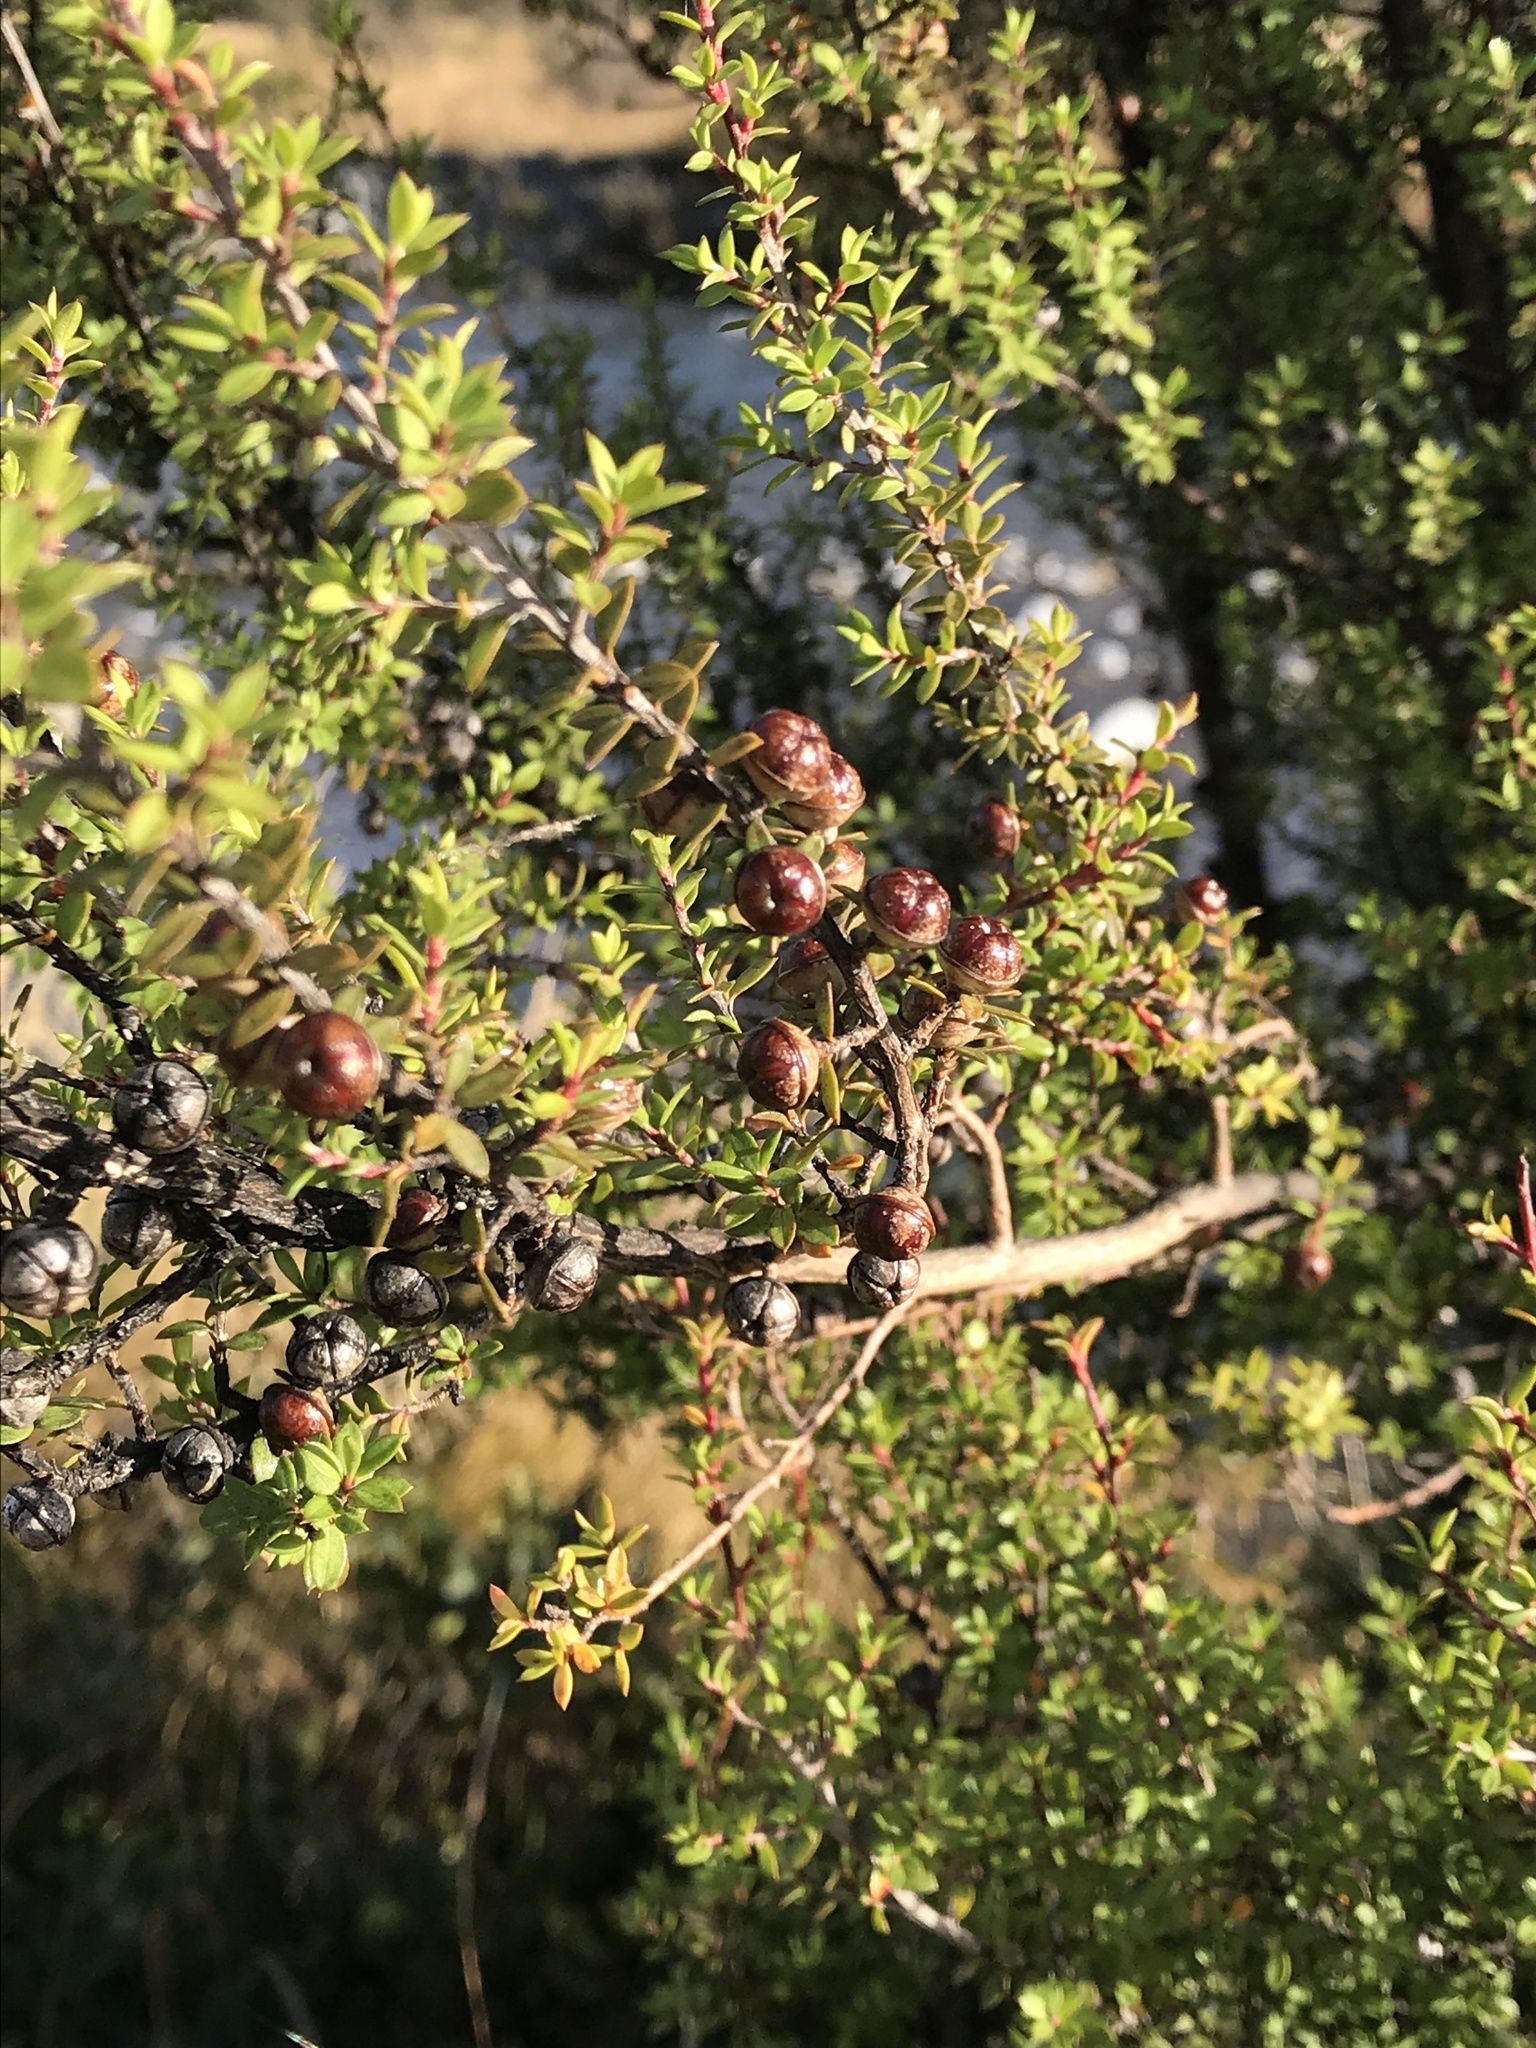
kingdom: Plantae
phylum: Tracheophyta
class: Magnoliopsida
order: Myrtales
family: Myrtaceae
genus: Leptospermum
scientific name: Leptospermum scoparium
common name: Broom tea-tree
